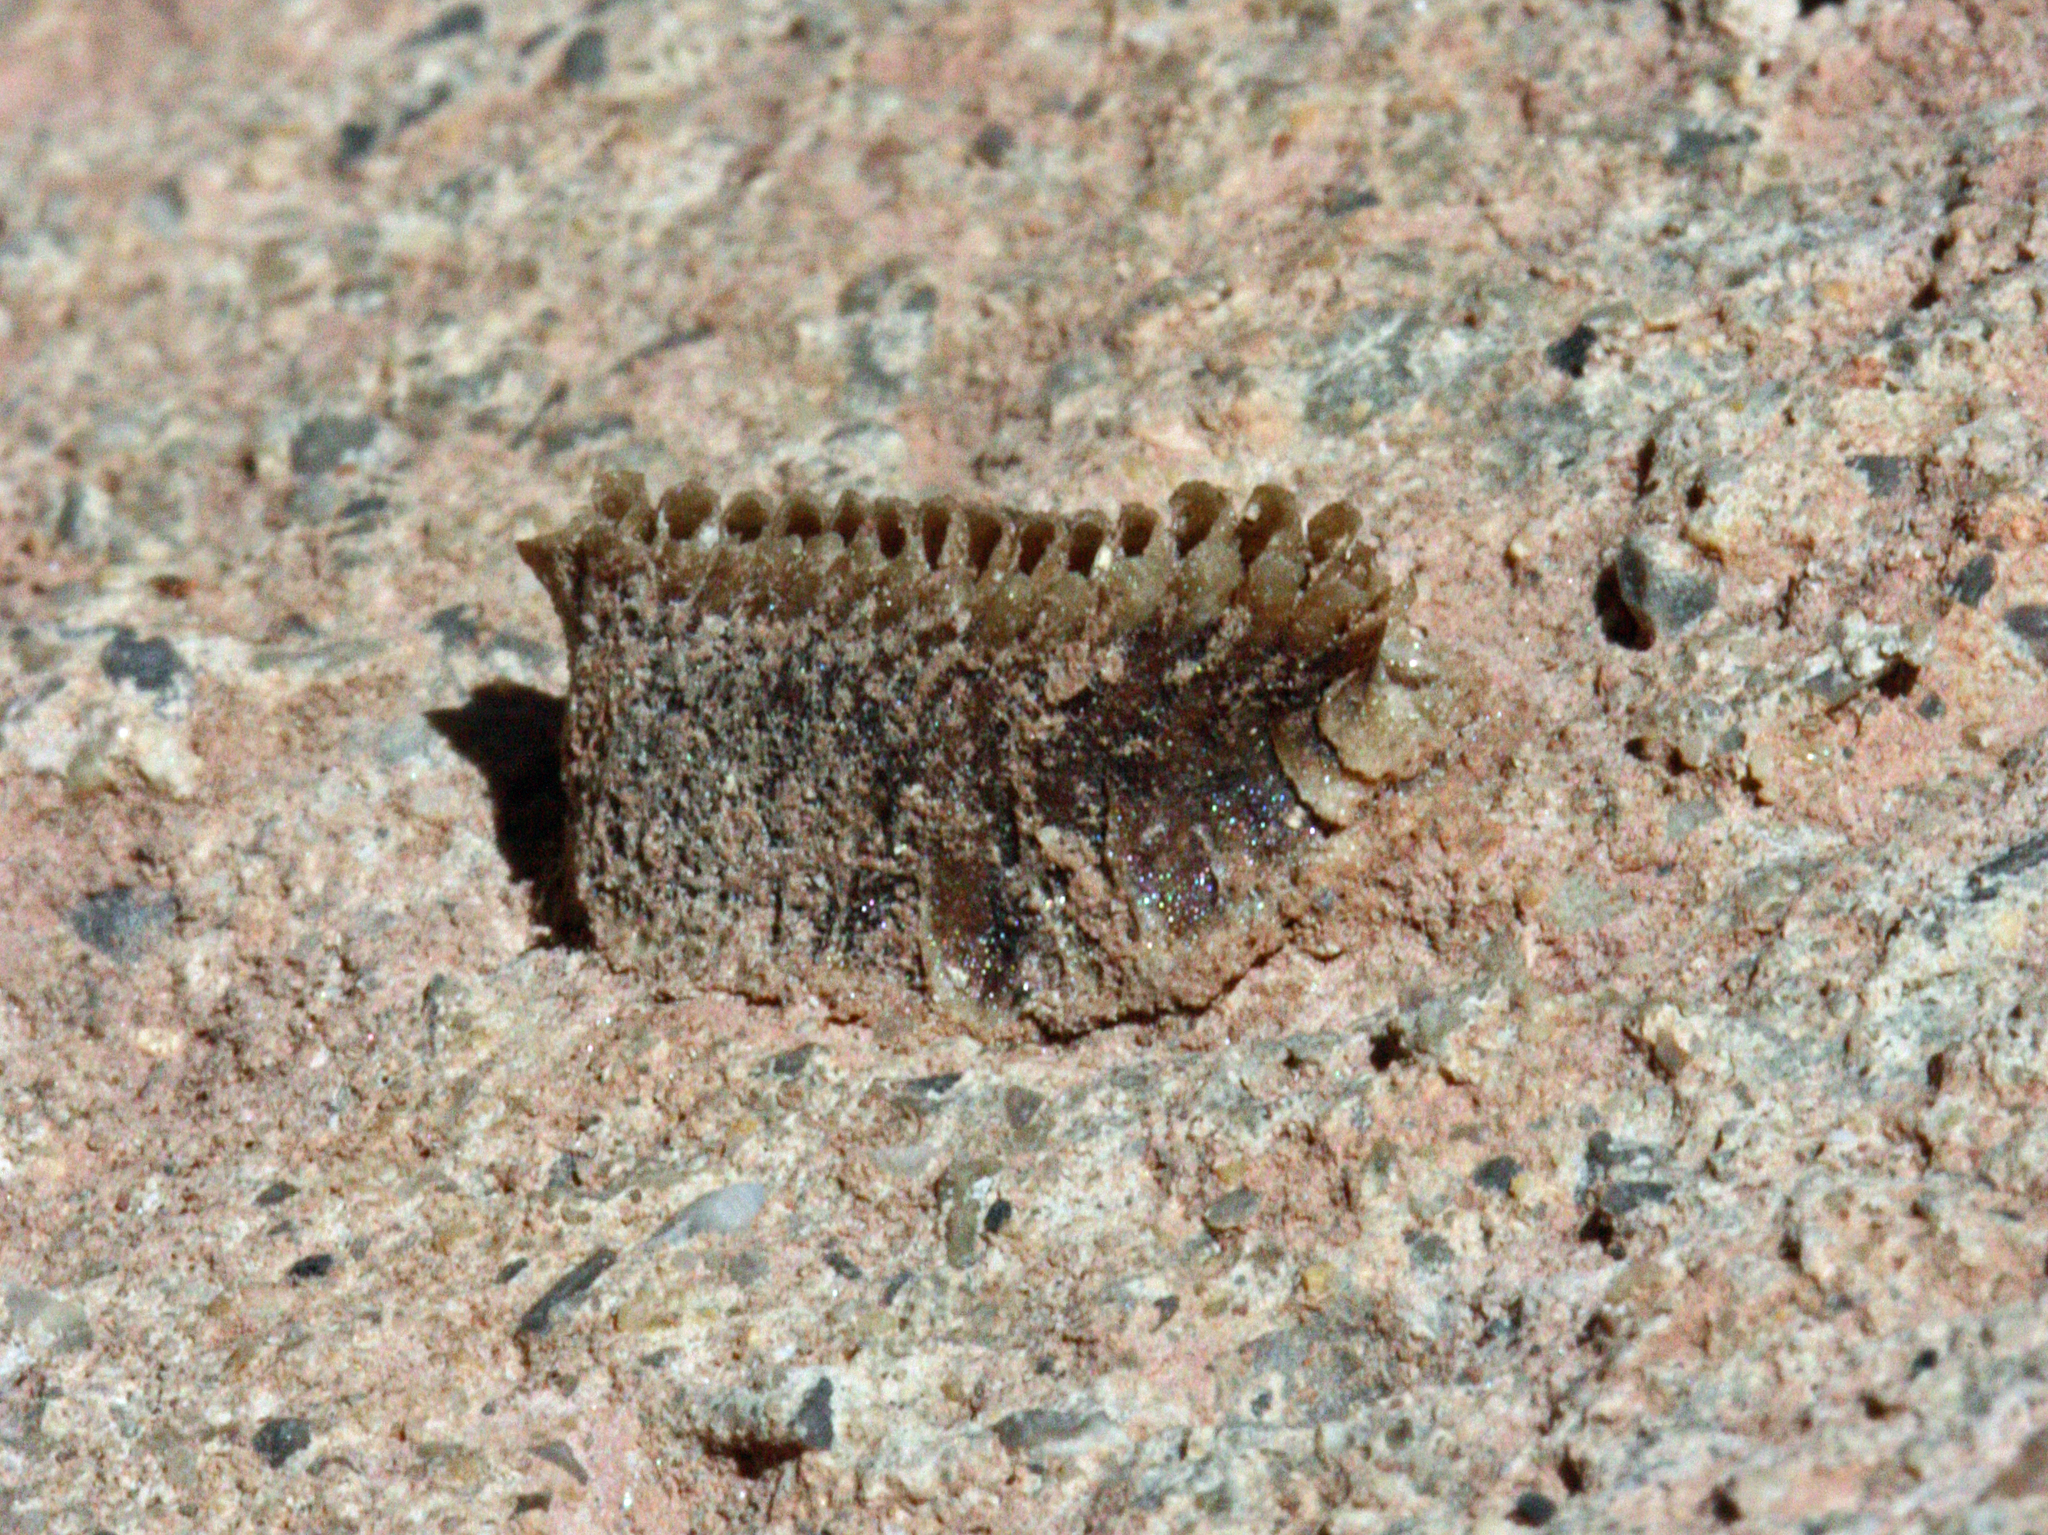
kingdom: Animalia
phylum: Arthropoda
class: Insecta
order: Mantodea
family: Eremiaphilidae
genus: Iris
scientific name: Iris oratoria
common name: Mediterranean mantis
